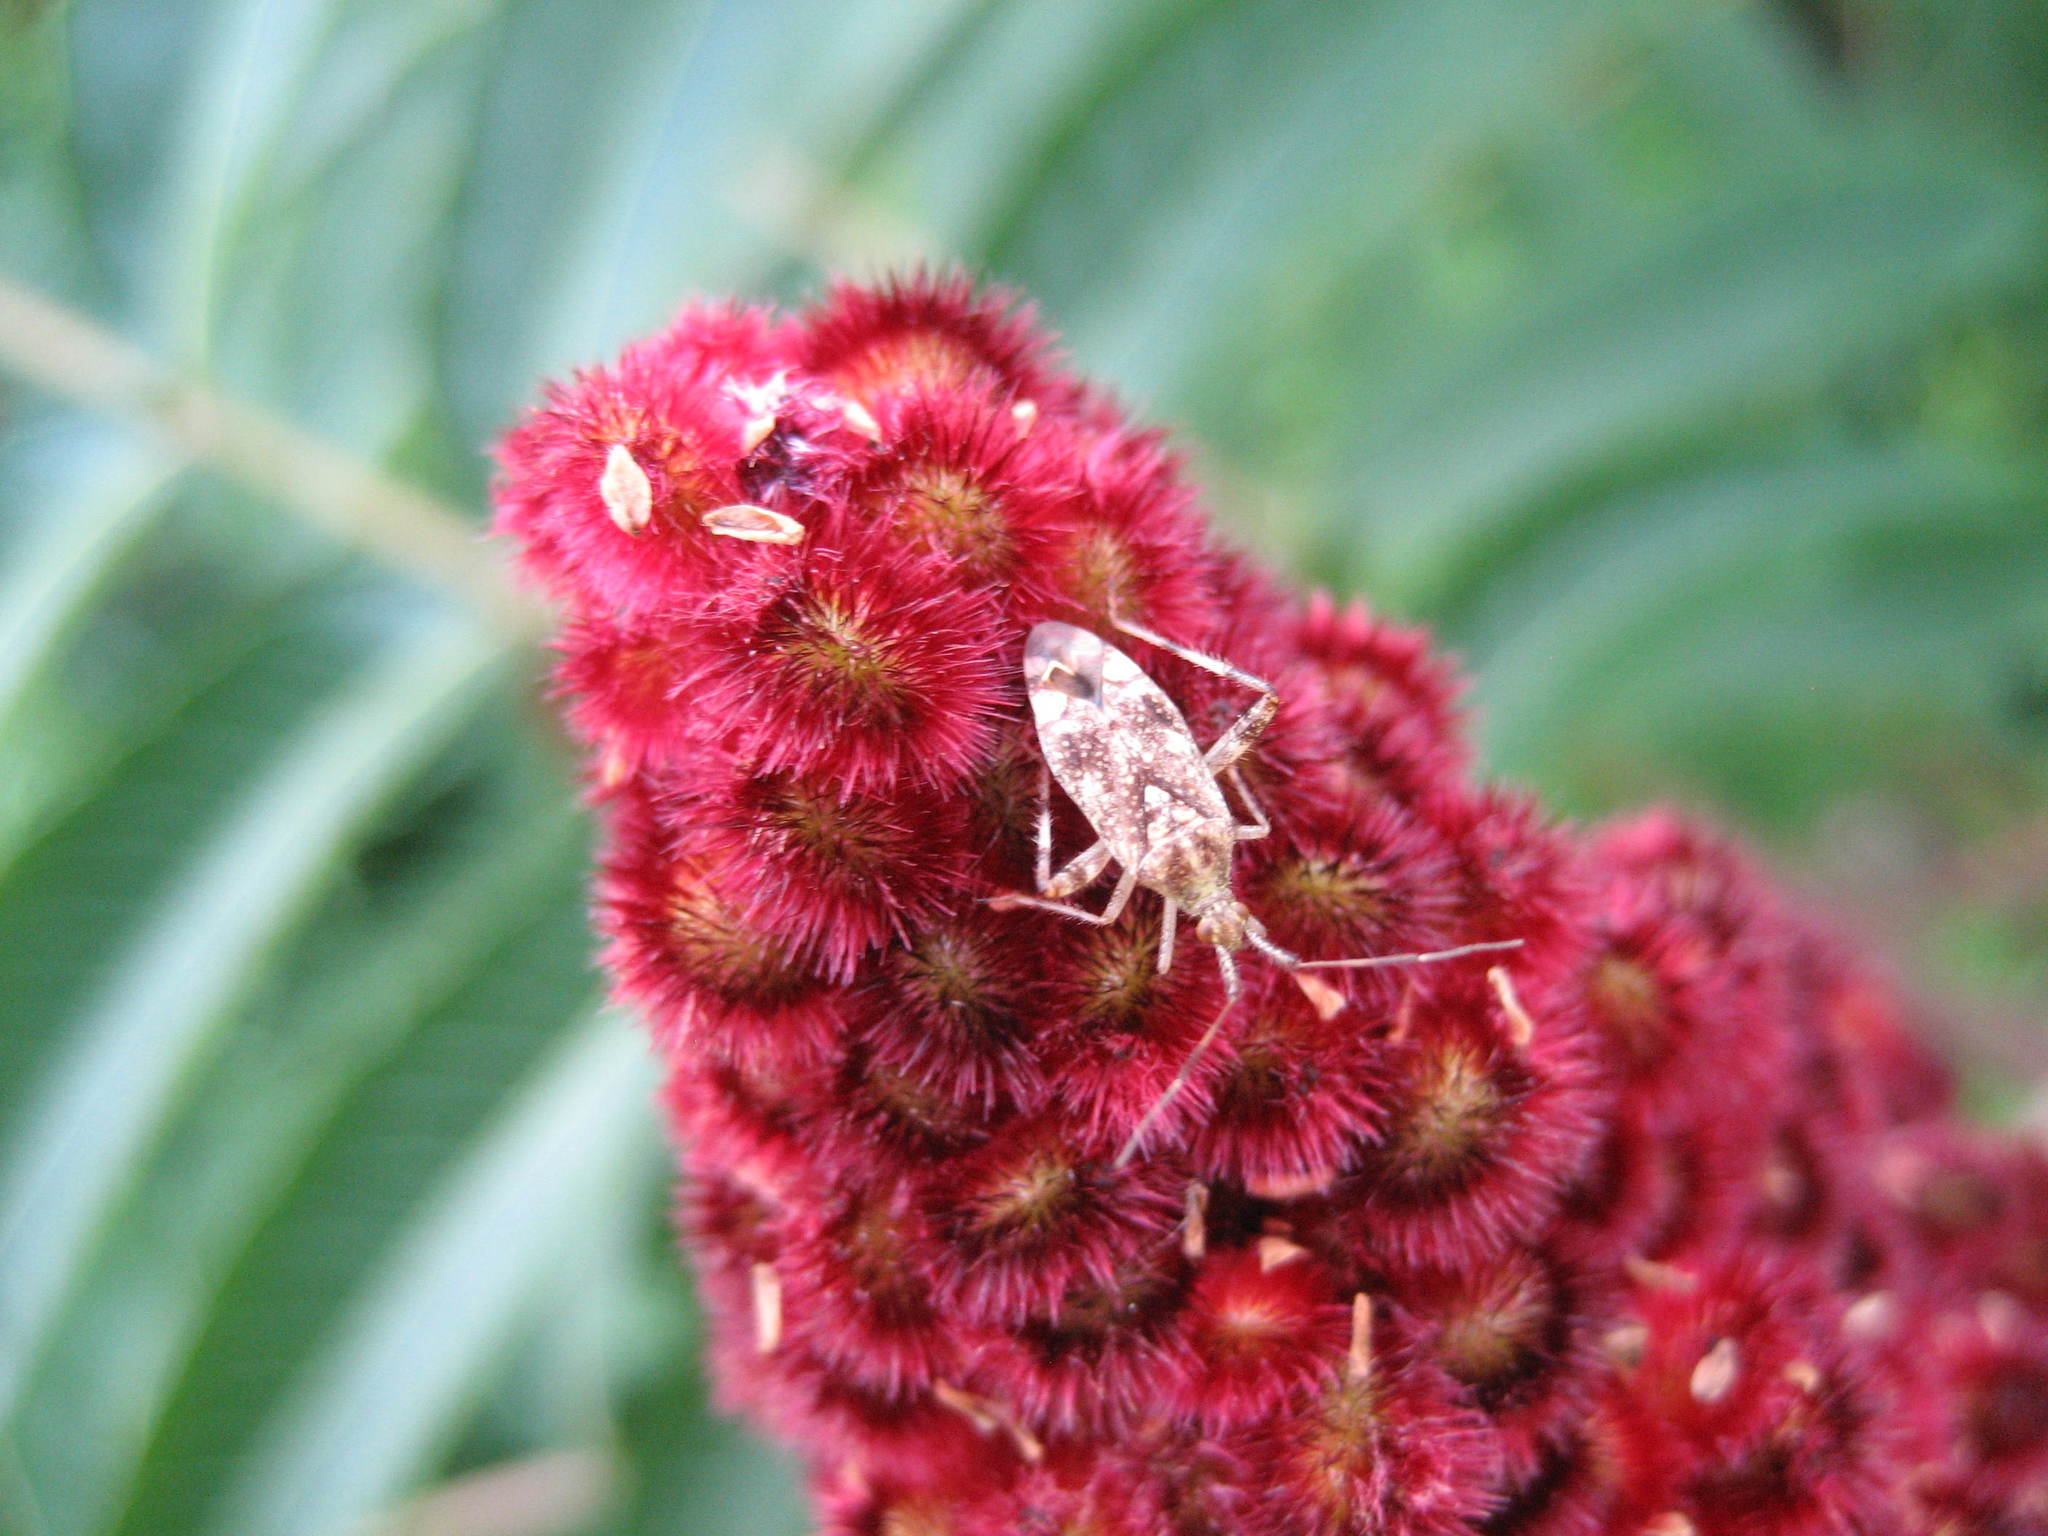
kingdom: Plantae
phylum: Tracheophyta
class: Magnoliopsida
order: Sapindales
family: Anacardiaceae
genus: Rhus
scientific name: Rhus typhina
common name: Staghorn sumac
